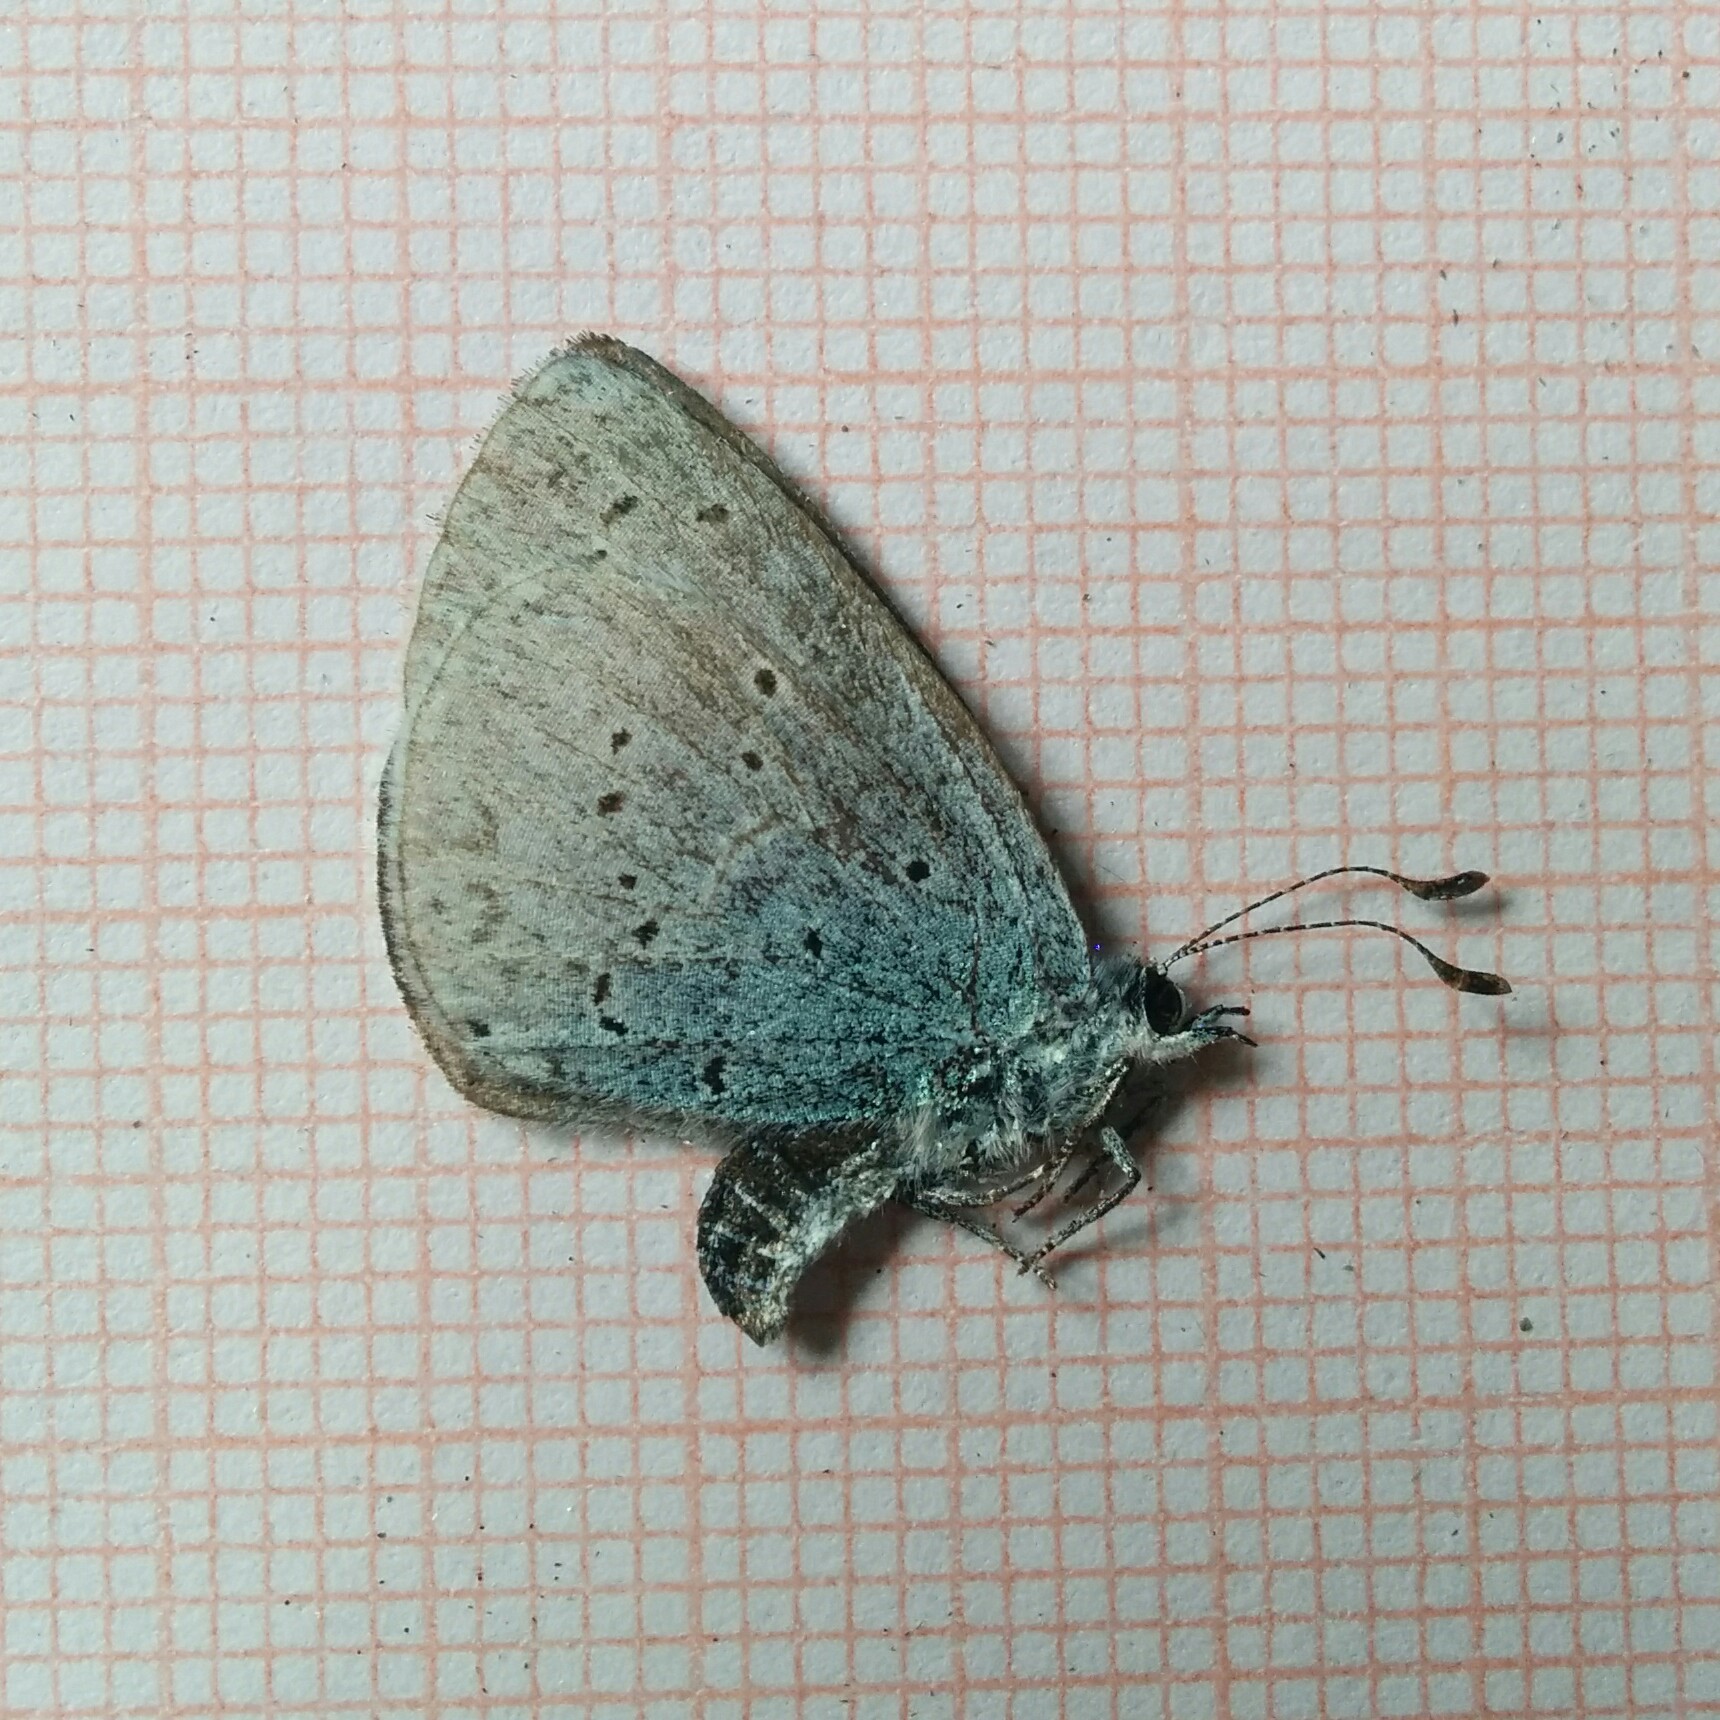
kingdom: Animalia
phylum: Arthropoda
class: Insecta
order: Lepidoptera
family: Lycaenidae
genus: Celastrina
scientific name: Celastrina argiolus
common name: Holly blue
